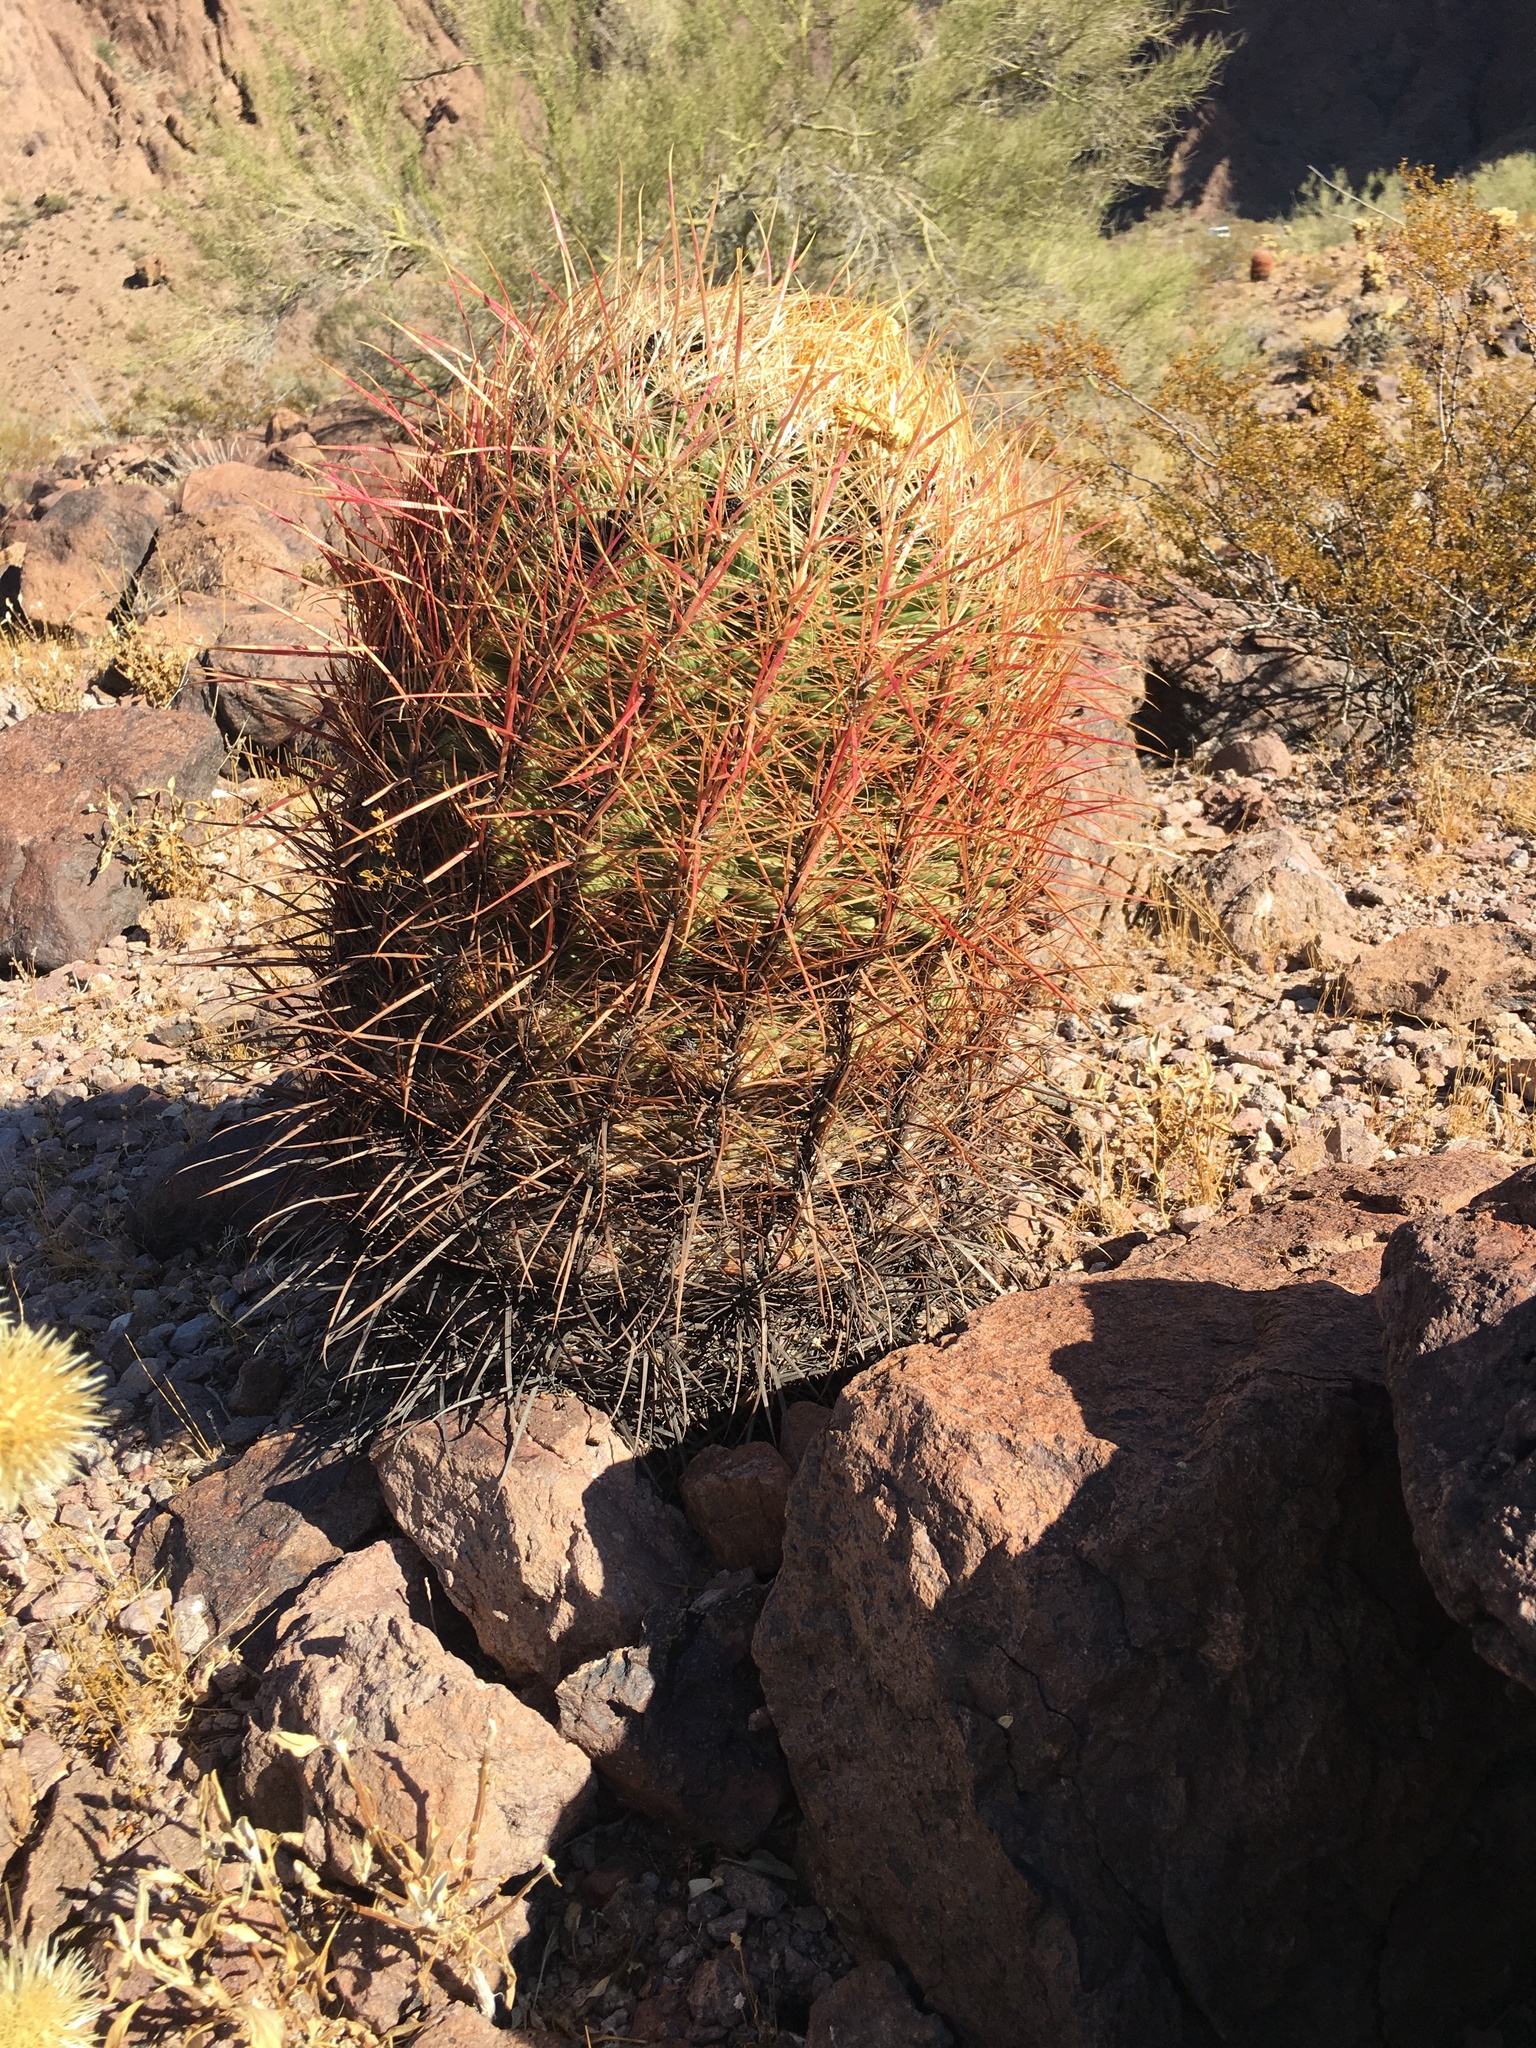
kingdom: Plantae
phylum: Tracheophyta
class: Magnoliopsida
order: Caryophyllales
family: Cactaceae
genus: Ferocactus
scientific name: Ferocactus cylindraceus
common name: California barrel cactus
